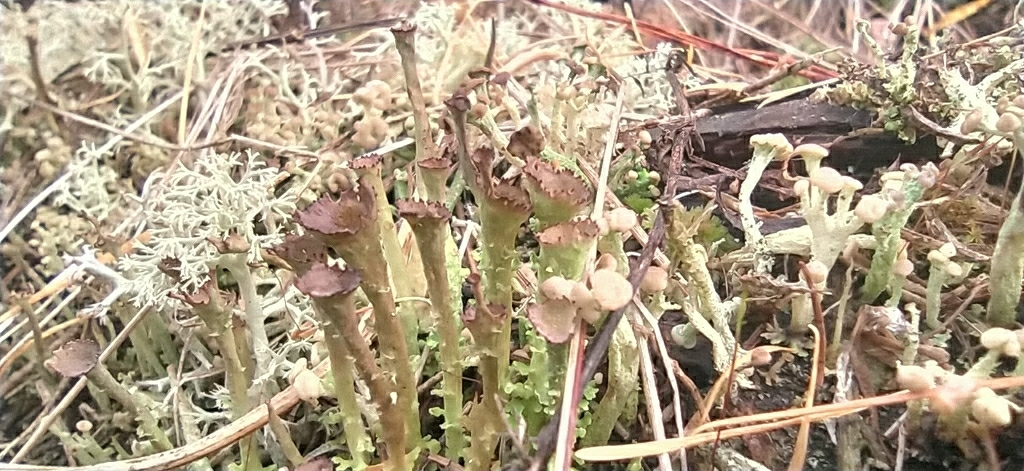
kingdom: Fungi
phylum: Ascomycota
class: Lecanoromycetes
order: Lecanorales
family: Cladoniaceae
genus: Cladonia
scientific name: Cladonia gracilis
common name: Smooth clad lichen
